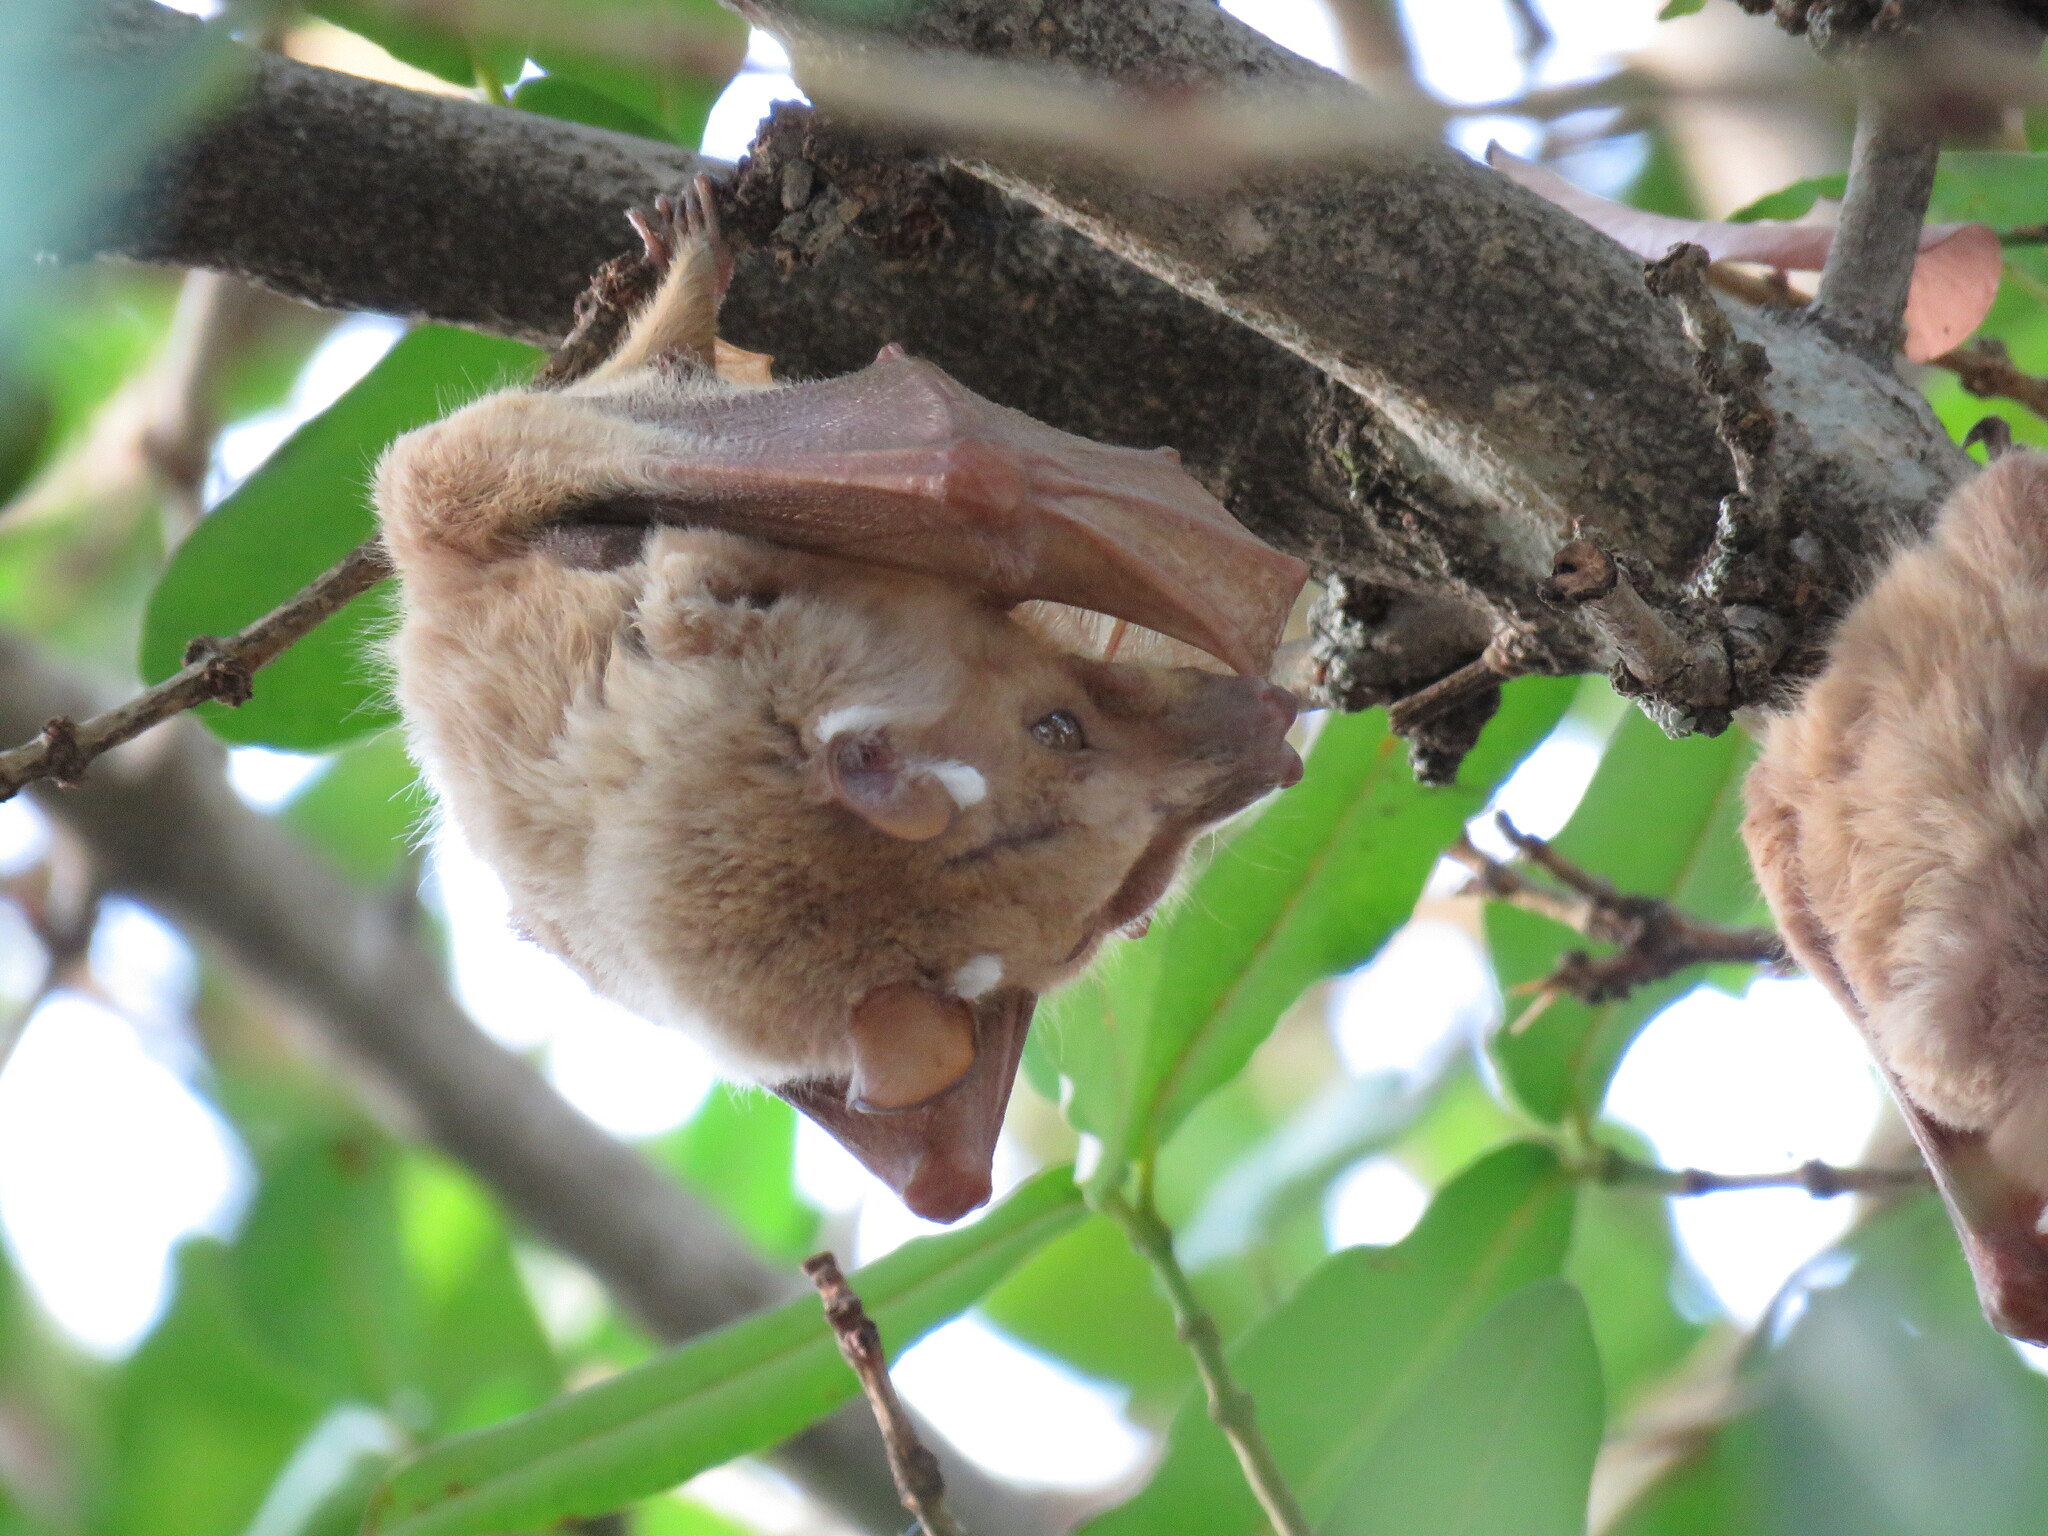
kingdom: Animalia
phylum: Chordata
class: Mammalia
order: Chiroptera
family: Pteropodidae
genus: Epomophorus
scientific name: Epomophorus crypturus
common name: Smaller epauletted fruit bat
